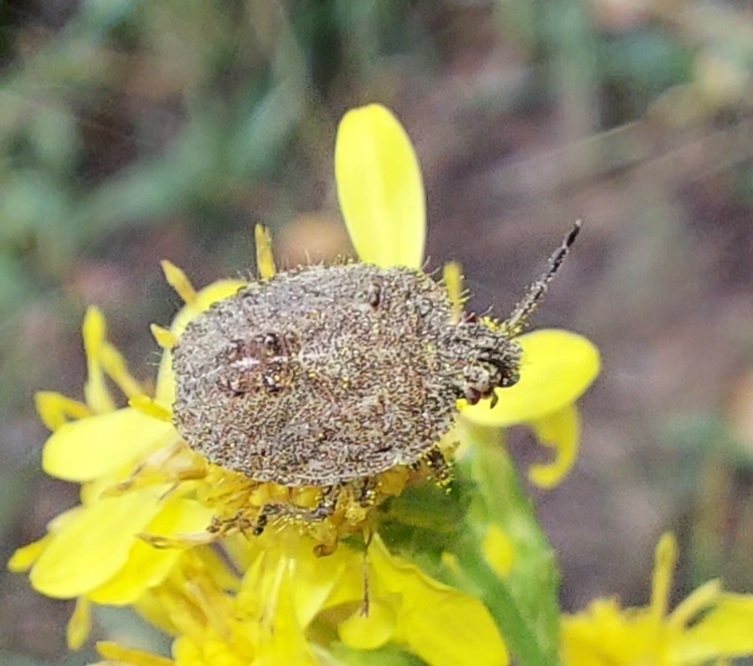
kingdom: Animalia
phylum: Arthropoda
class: Insecta
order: Hemiptera
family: Pentatomidae
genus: Dolycoris
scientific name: Dolycoris baccarum
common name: Sloe bug
